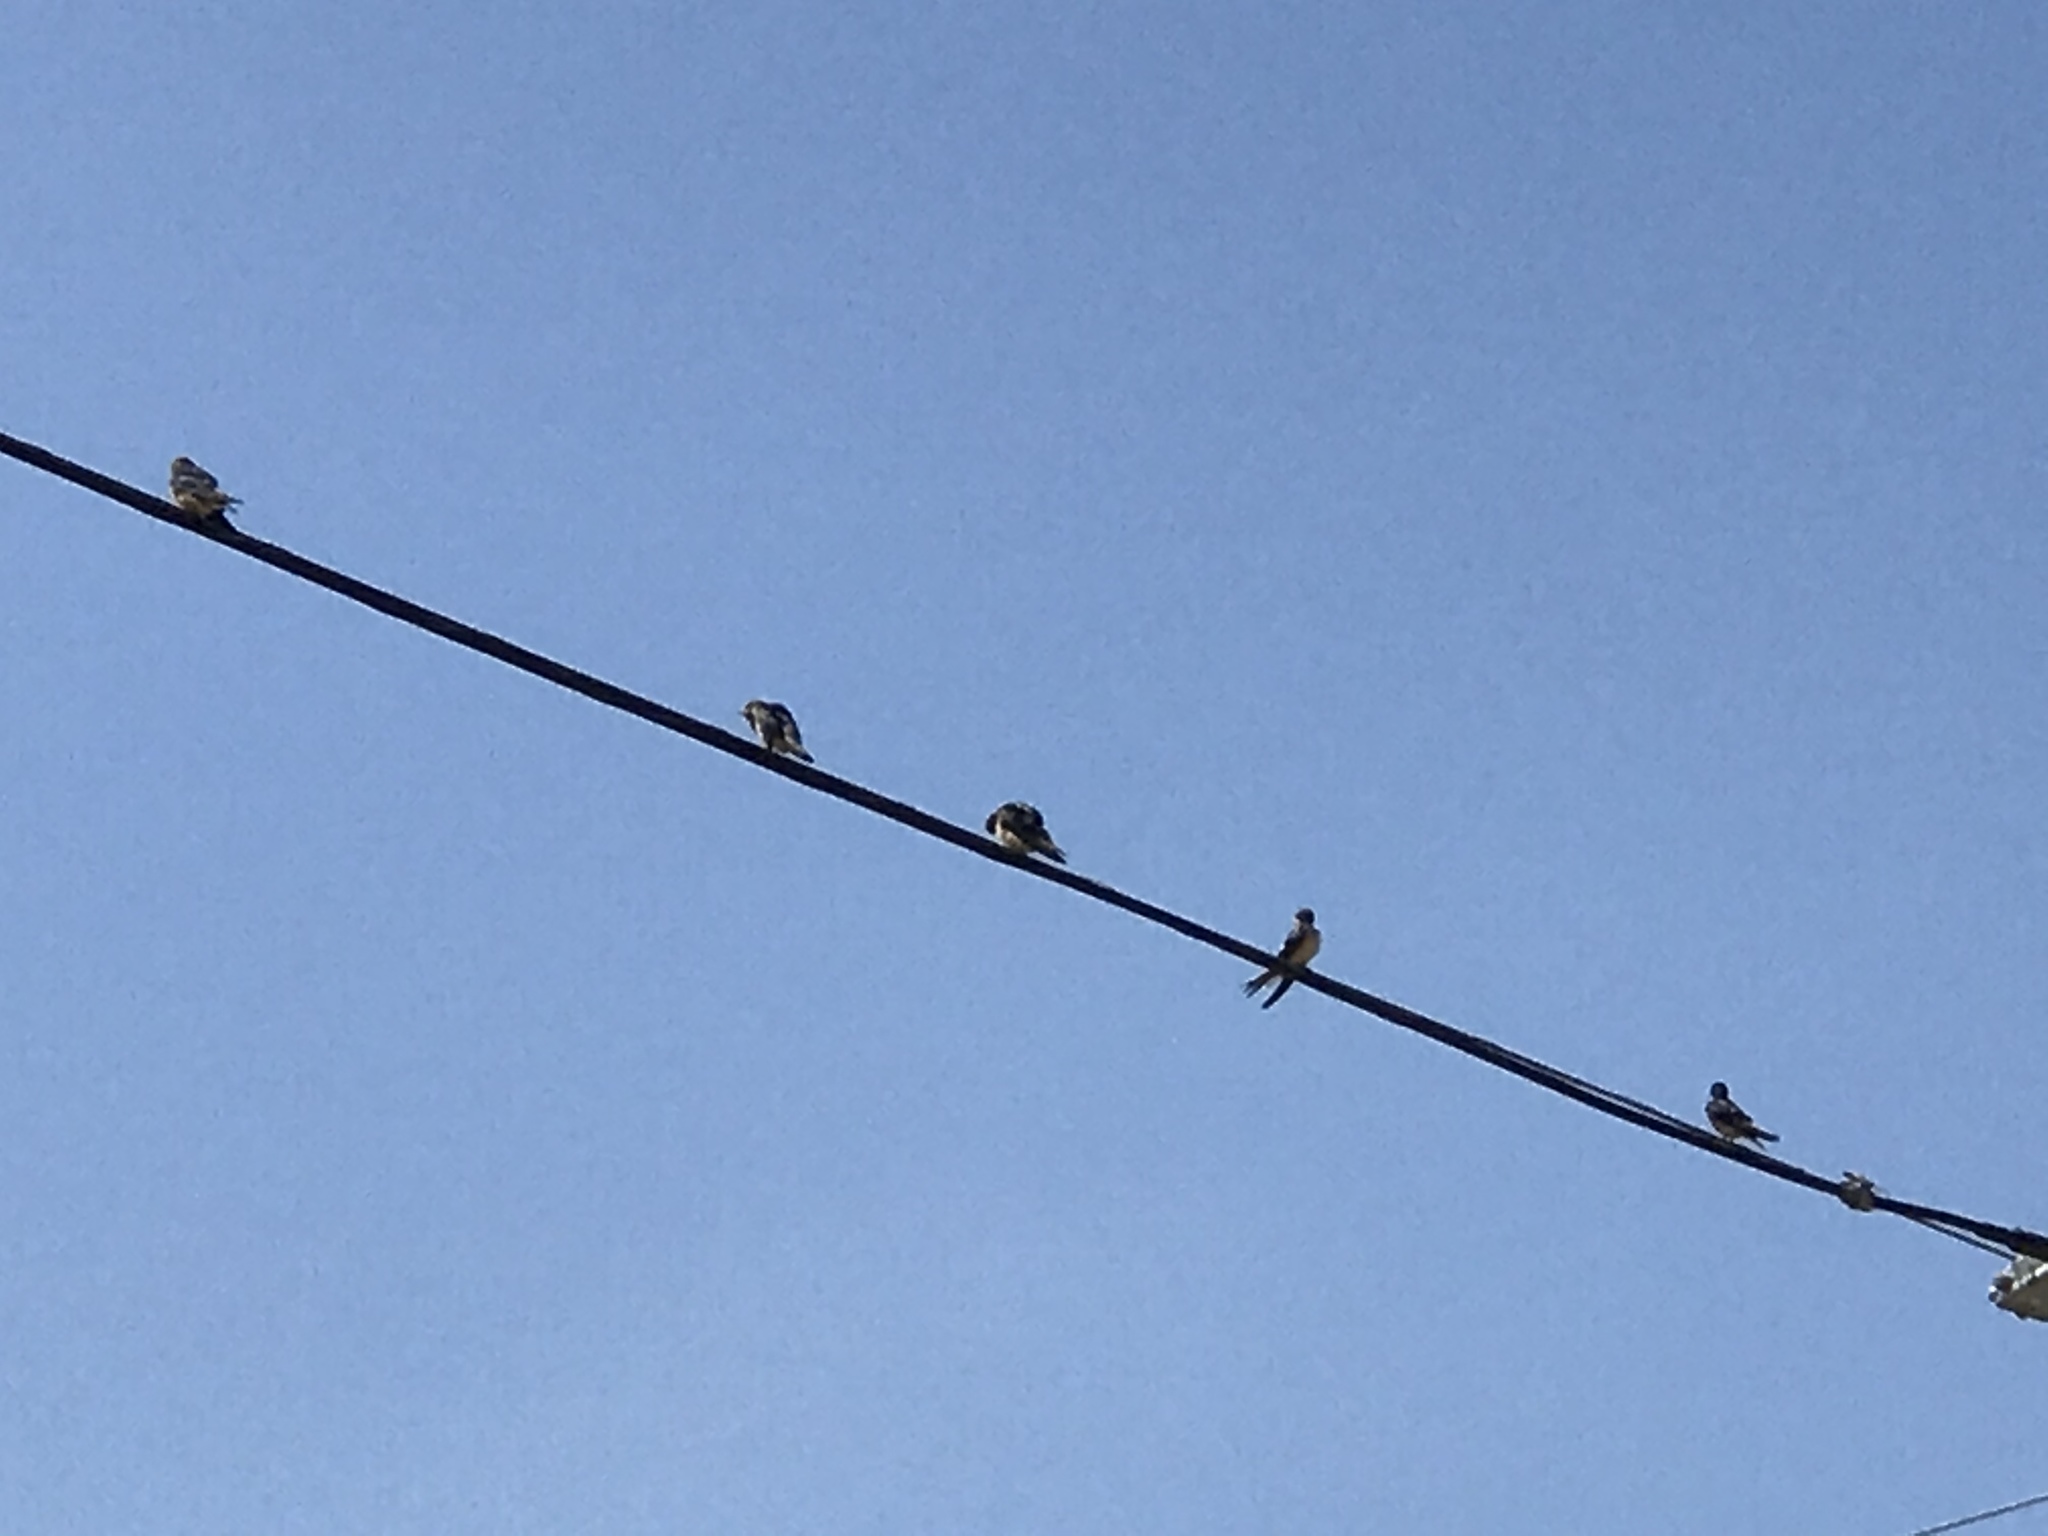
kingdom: Animalia
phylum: Chordata
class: Aves
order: Passeriformes
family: Hirundinidae
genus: Hirundo
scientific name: Hirundo rustica
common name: Barn swallow
